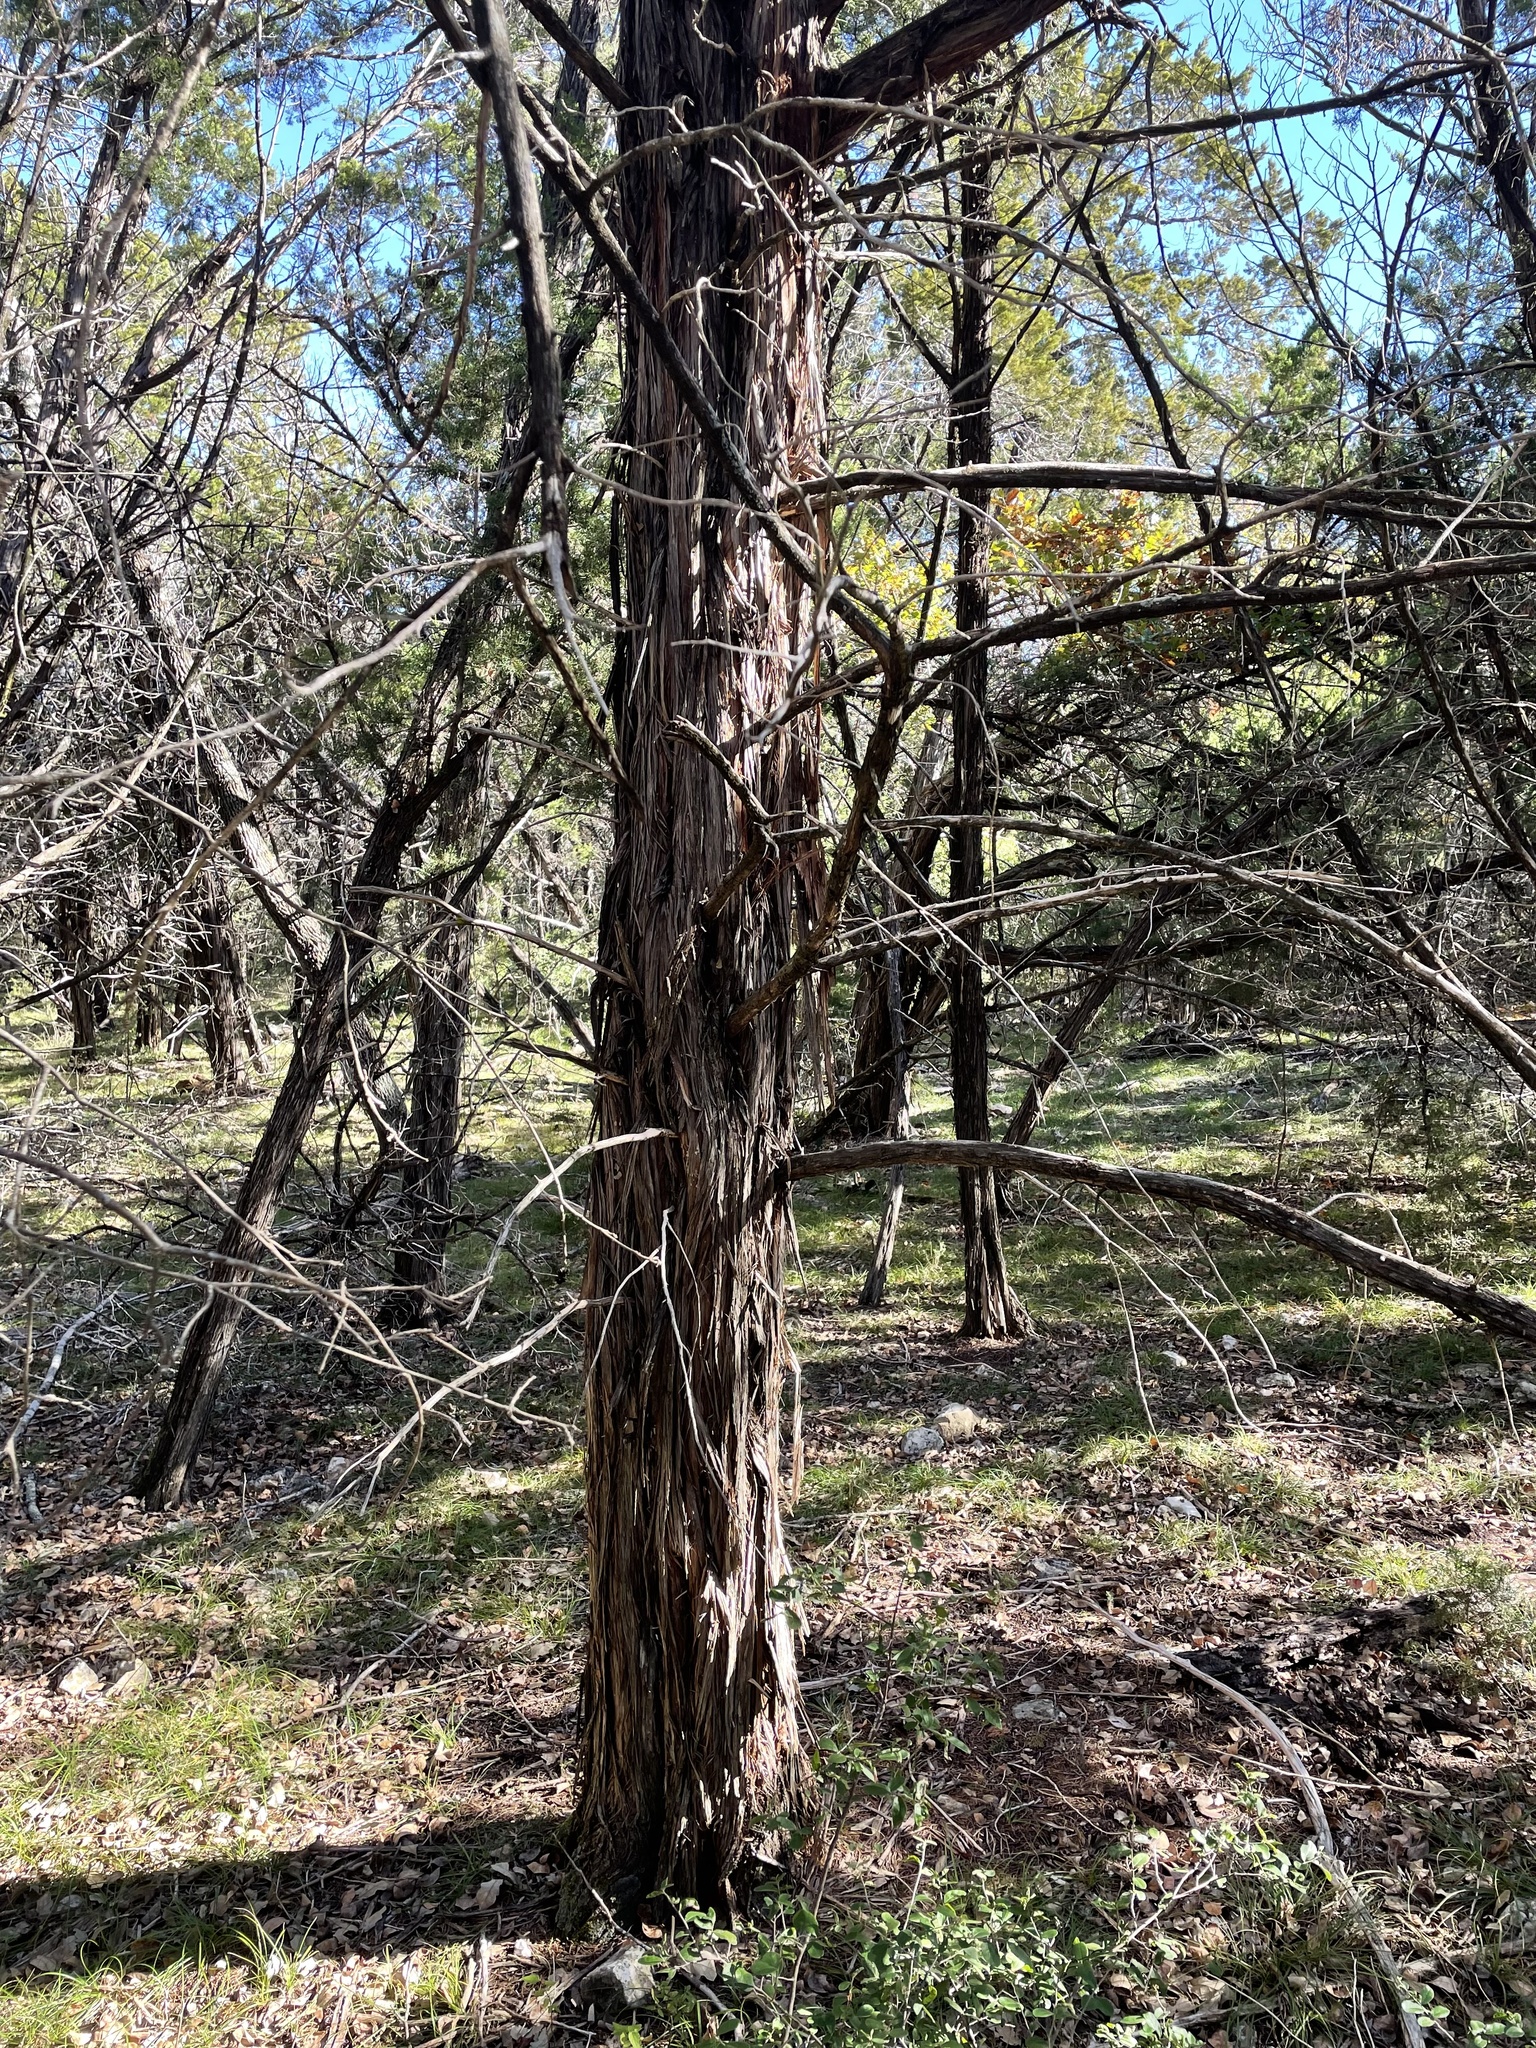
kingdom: Plantae
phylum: Tracheophyta
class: Pinopsida
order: Pinales
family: Cupressaceae
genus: Juniperus
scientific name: Juniperus ashei
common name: Mexican juniper
